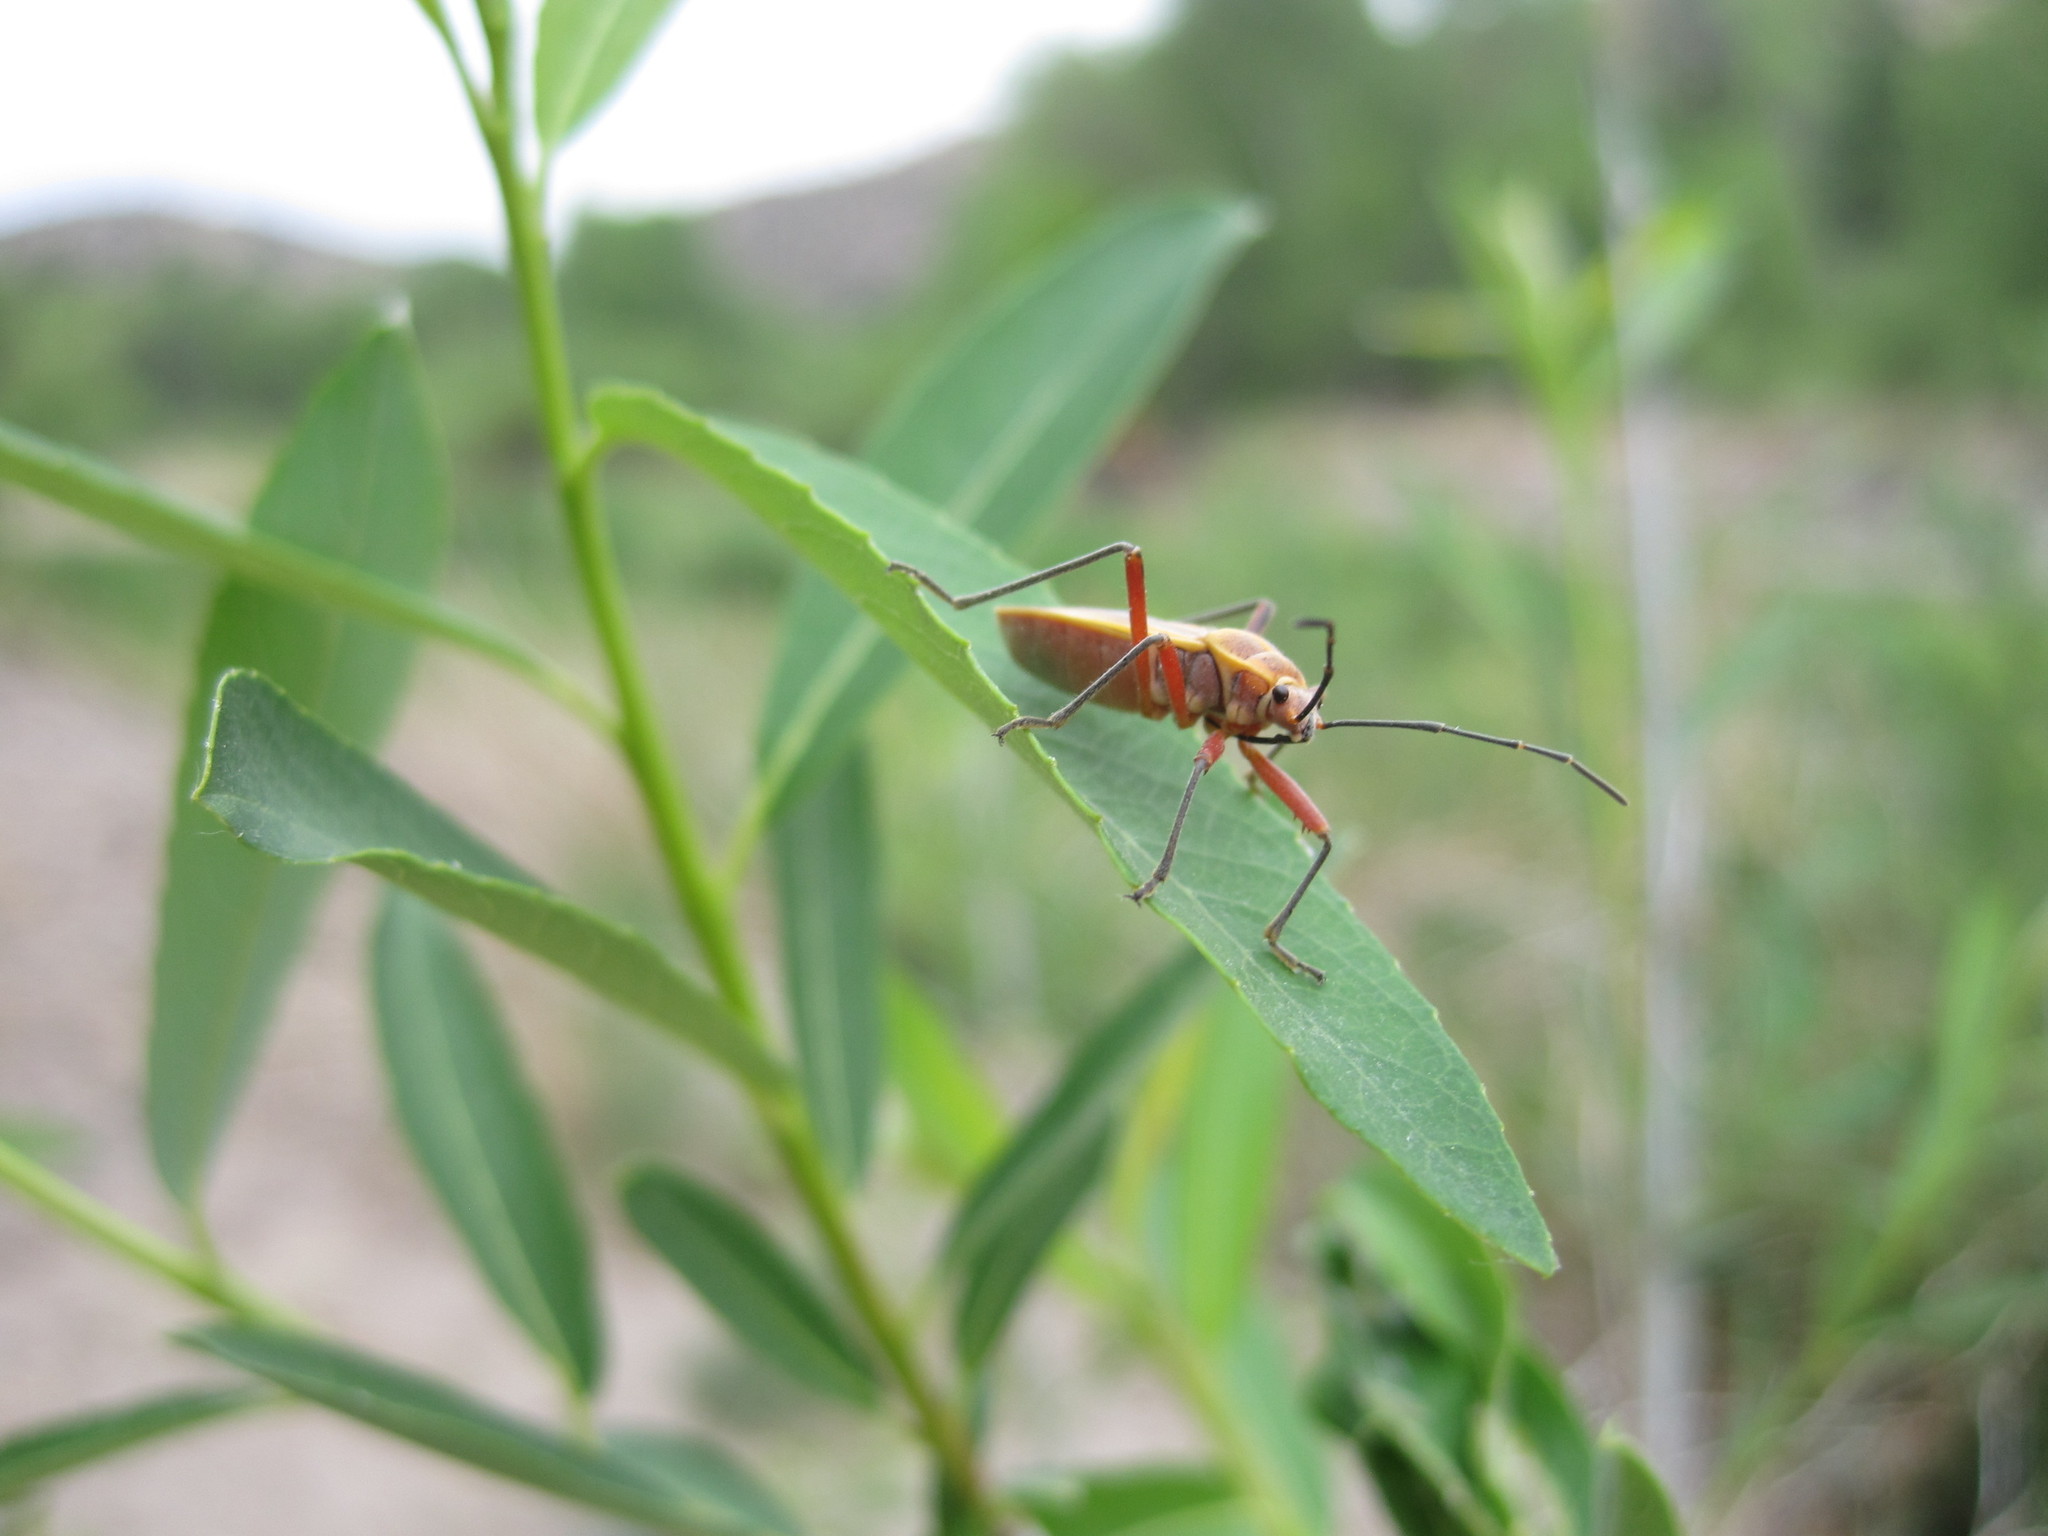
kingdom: Animalia
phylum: Arthropoda
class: Insecta
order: Hemiptera
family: Largidae
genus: Stenomacra
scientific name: Stenomacra marginella
